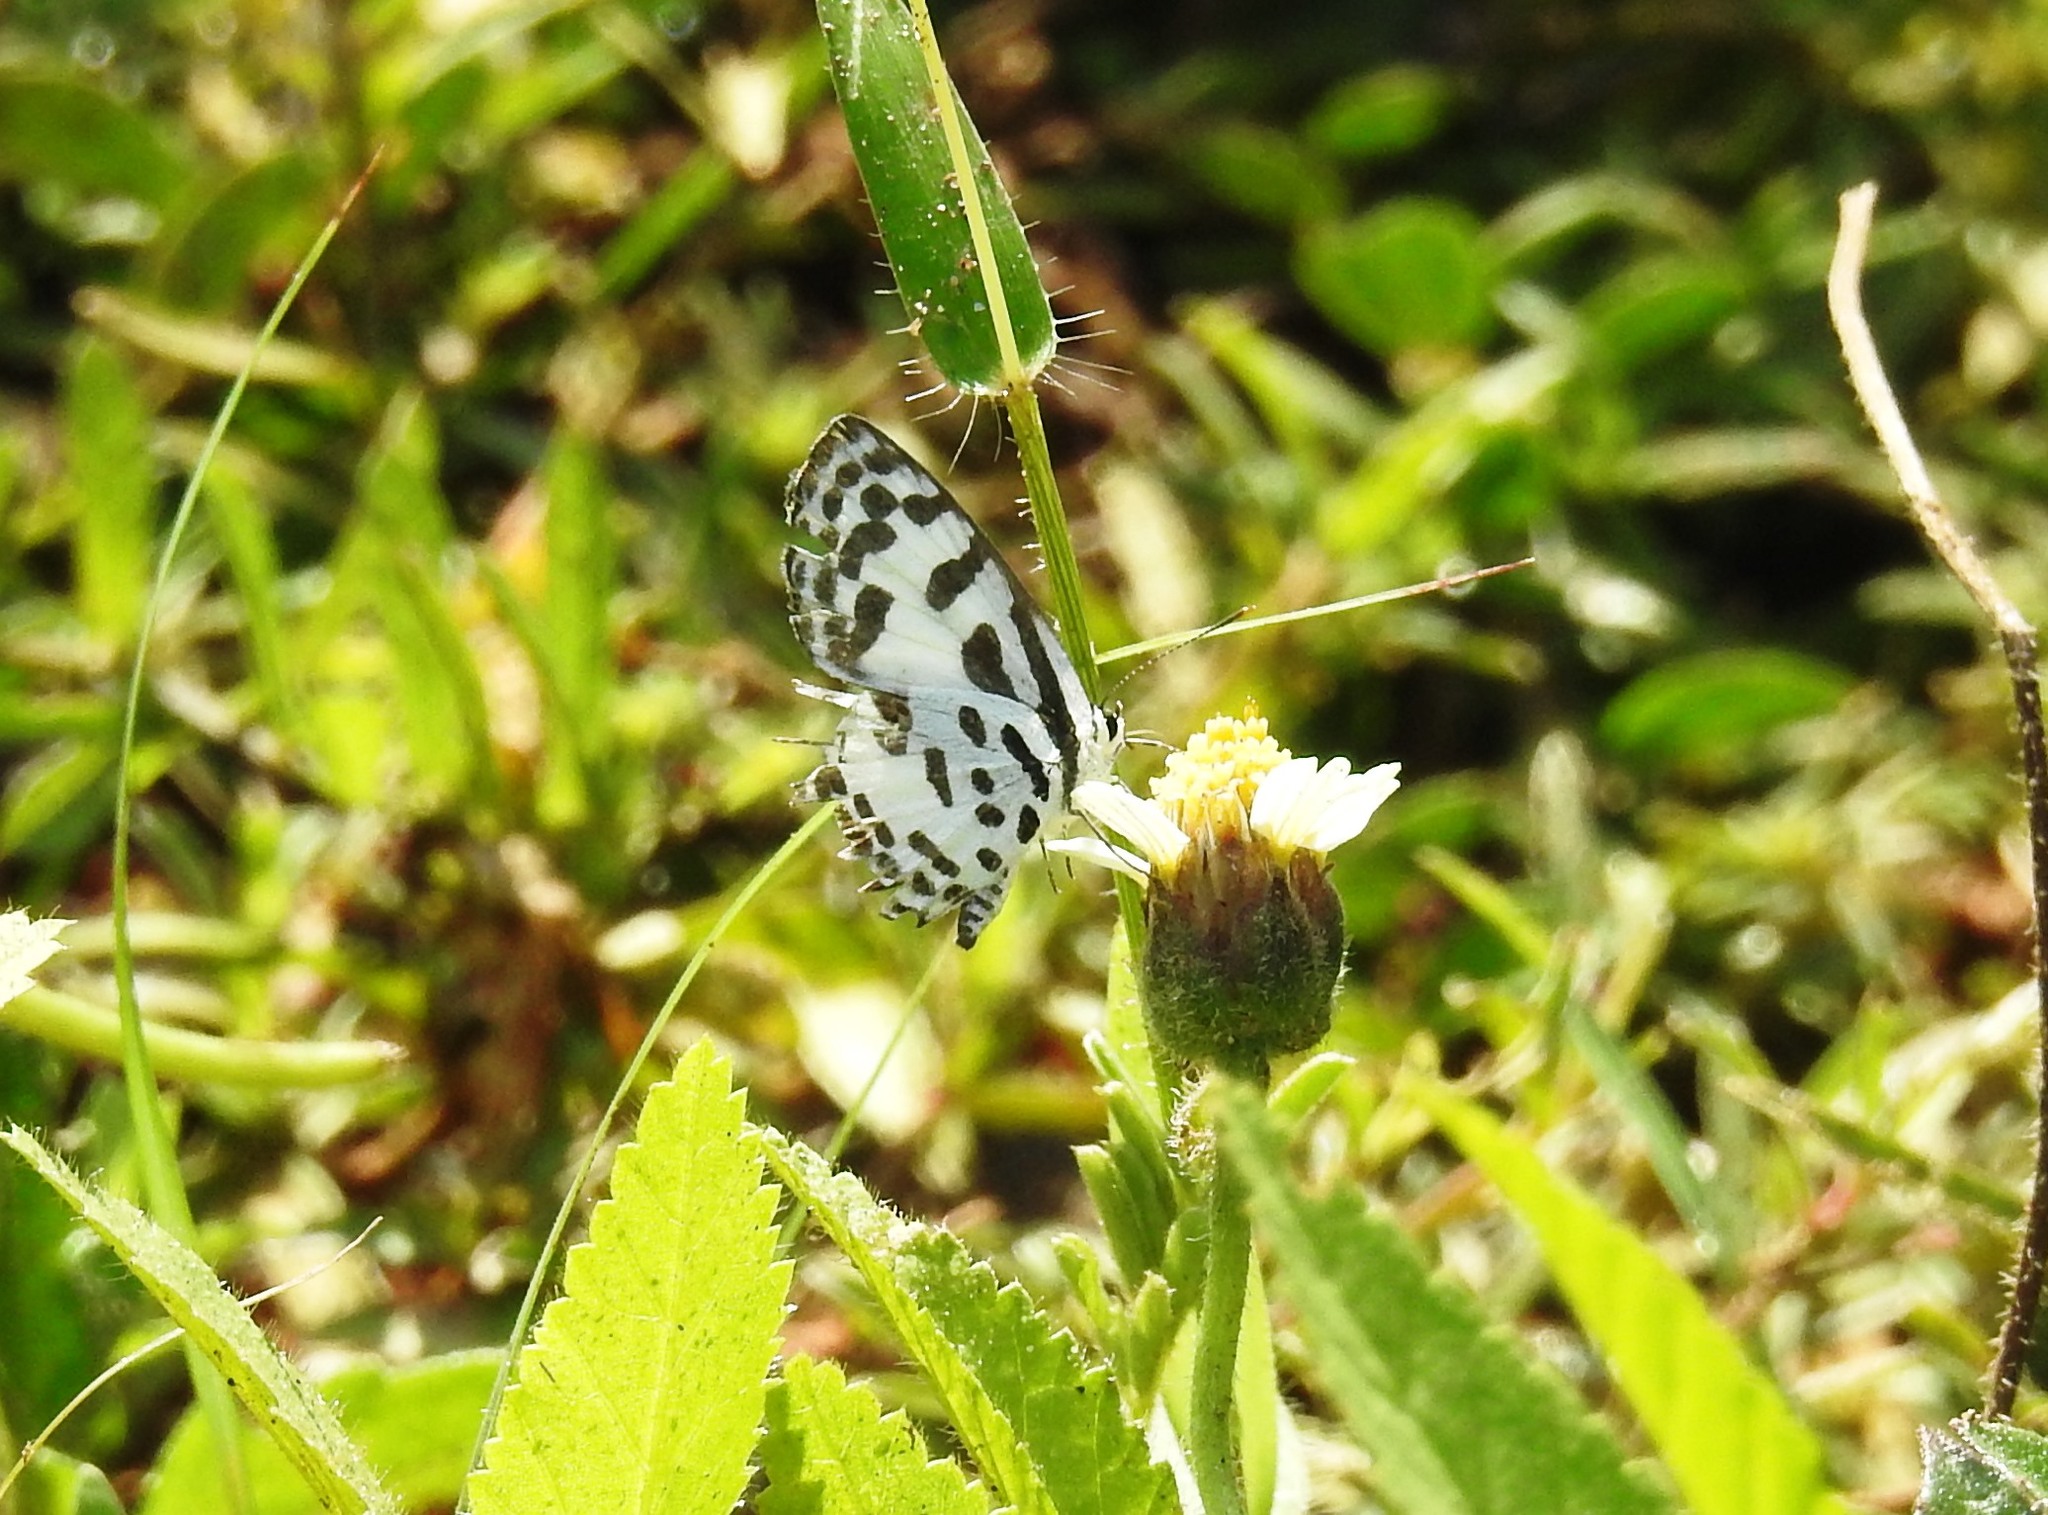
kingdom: Animalia
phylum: Arthropoda
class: Insecta
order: Lepidoptera
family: Lycaenidae
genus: Castalius
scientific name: Castalius rosimon
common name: Common pierrot
